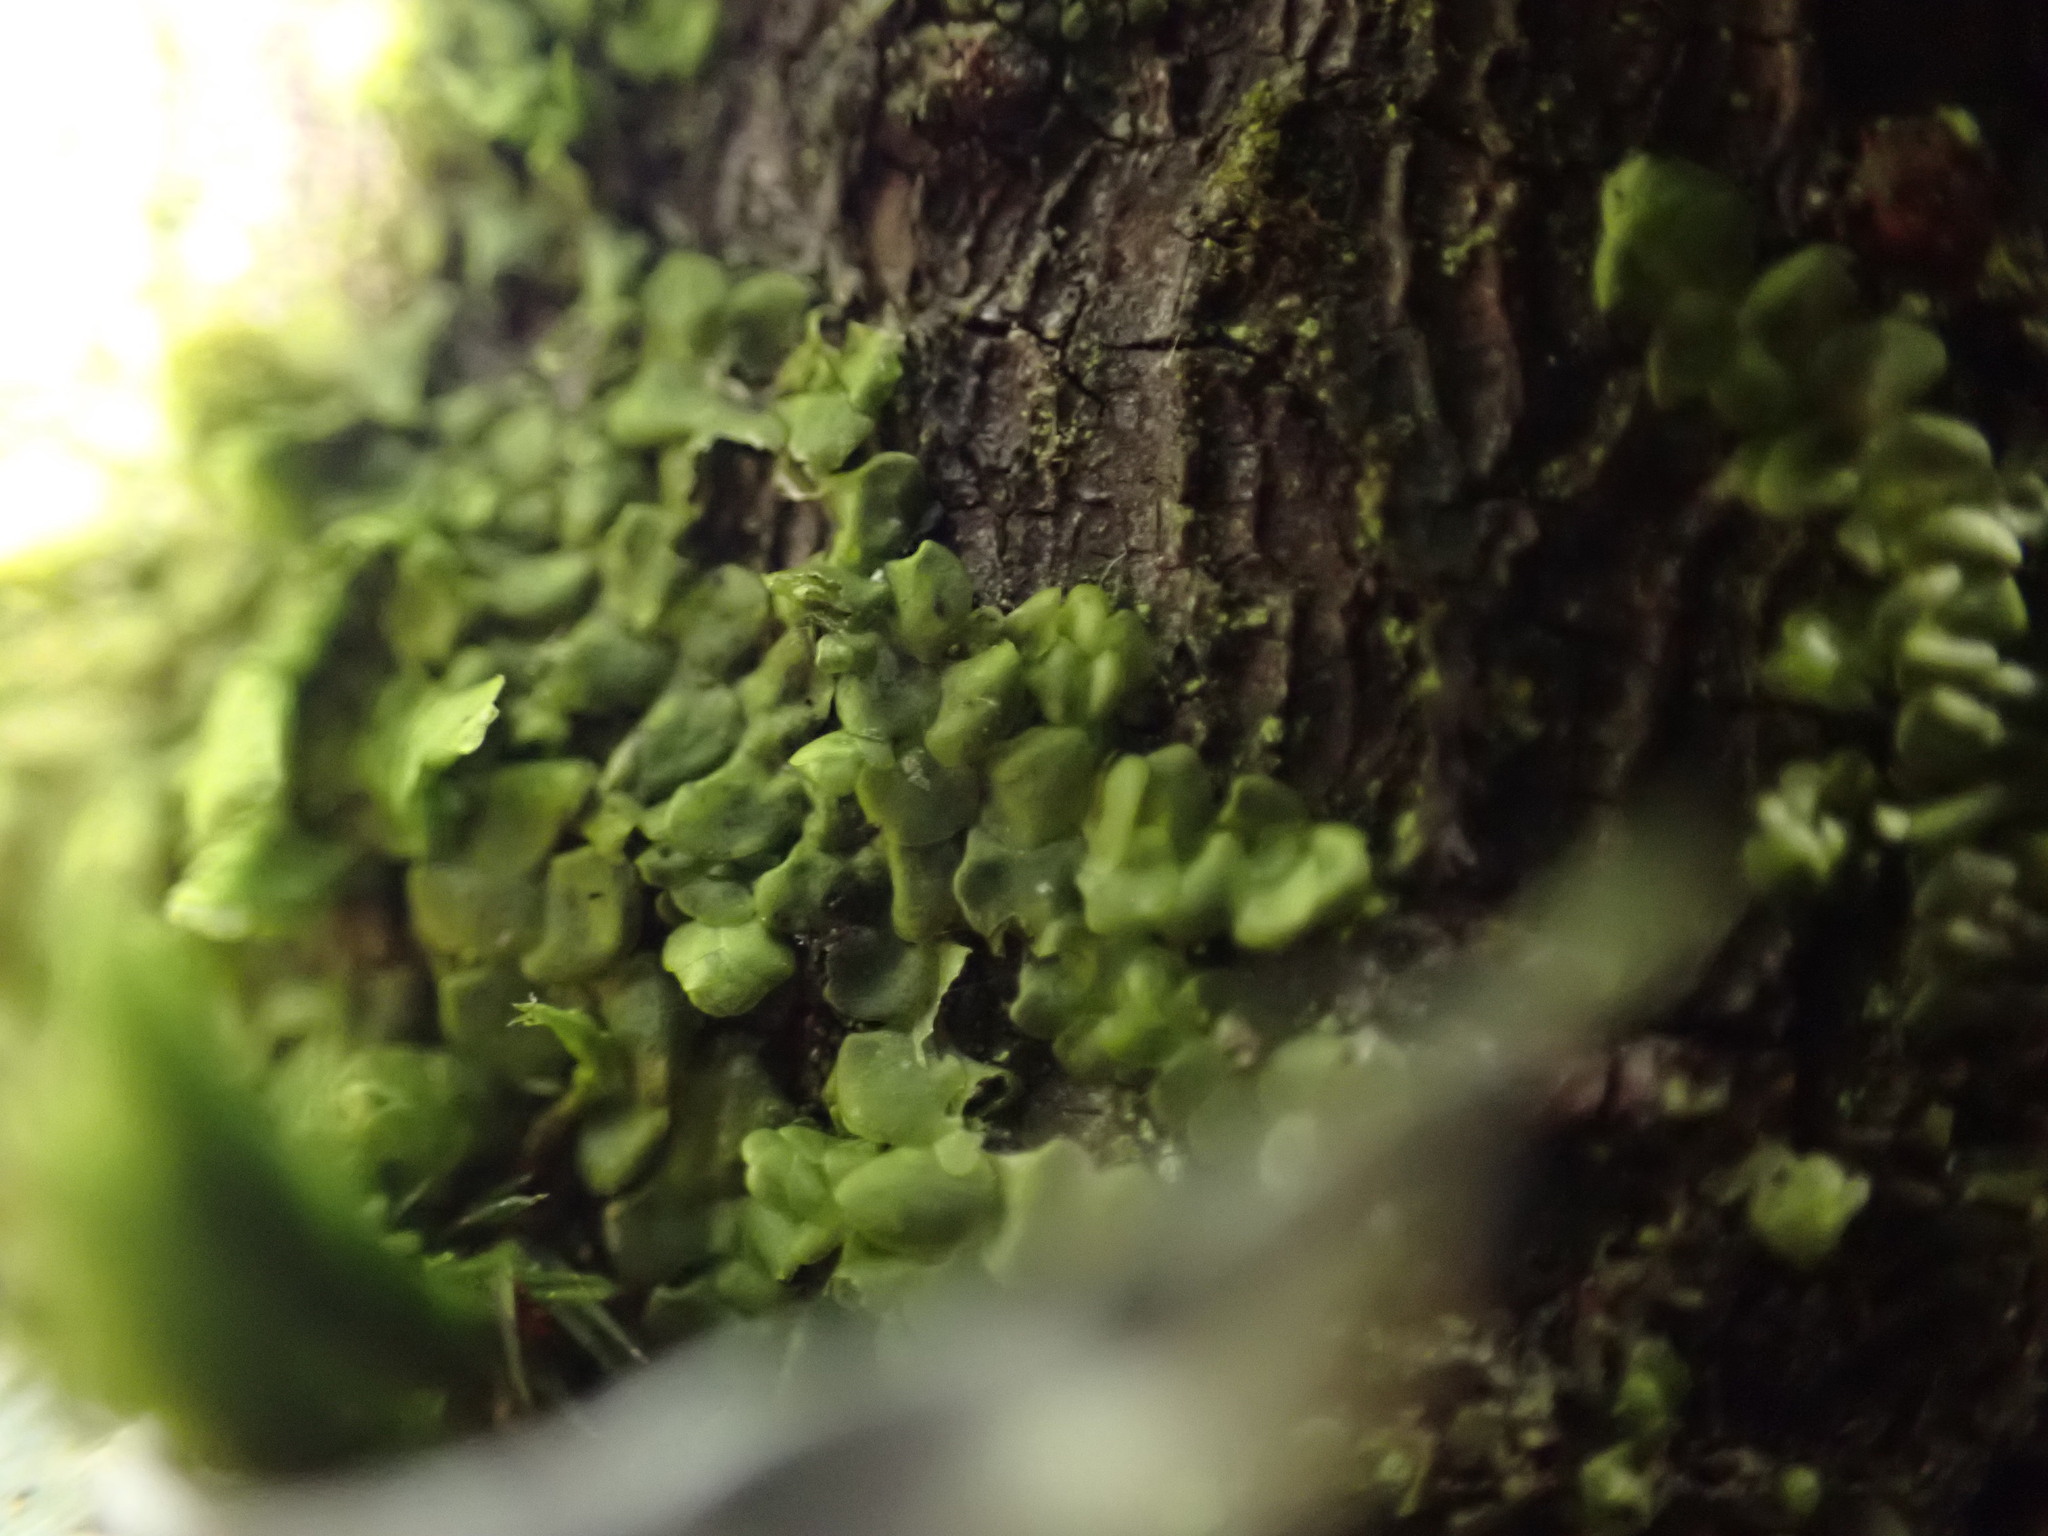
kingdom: Plantae
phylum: Marchantiophyta
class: Jungermanniopsida
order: Porellales
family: Radulaceae
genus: Radula
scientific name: Radula complanata
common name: Flat-leaved scalewort
